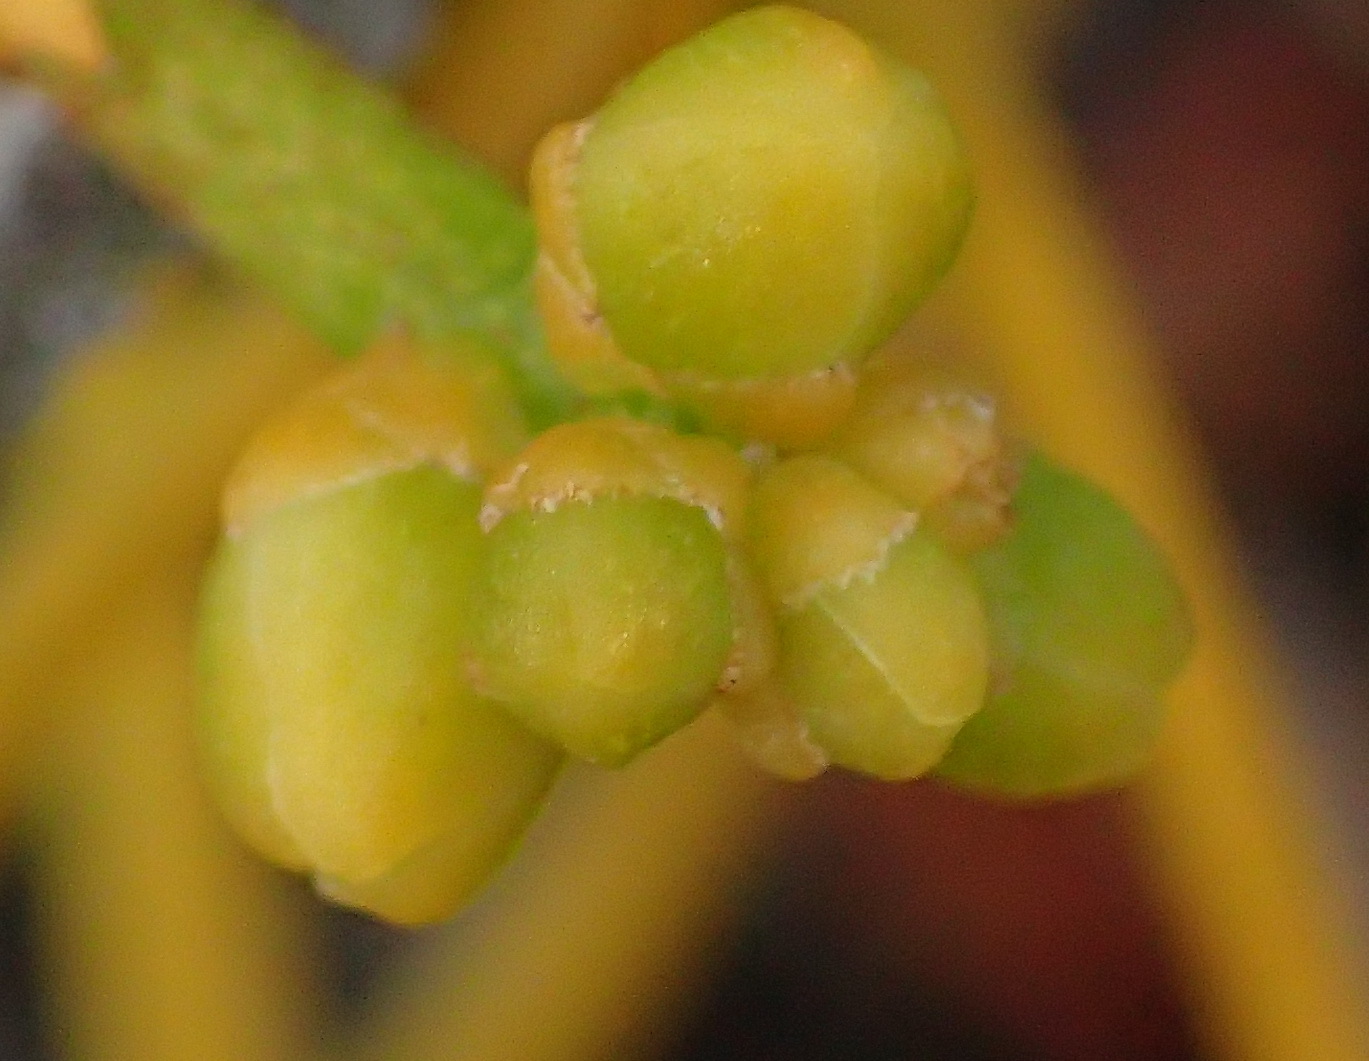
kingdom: Plantae
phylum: Tracheophyta
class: Magnoliopsida
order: Laurales
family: Lauraceae
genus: Cassytha
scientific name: Cassytha ciliolata
